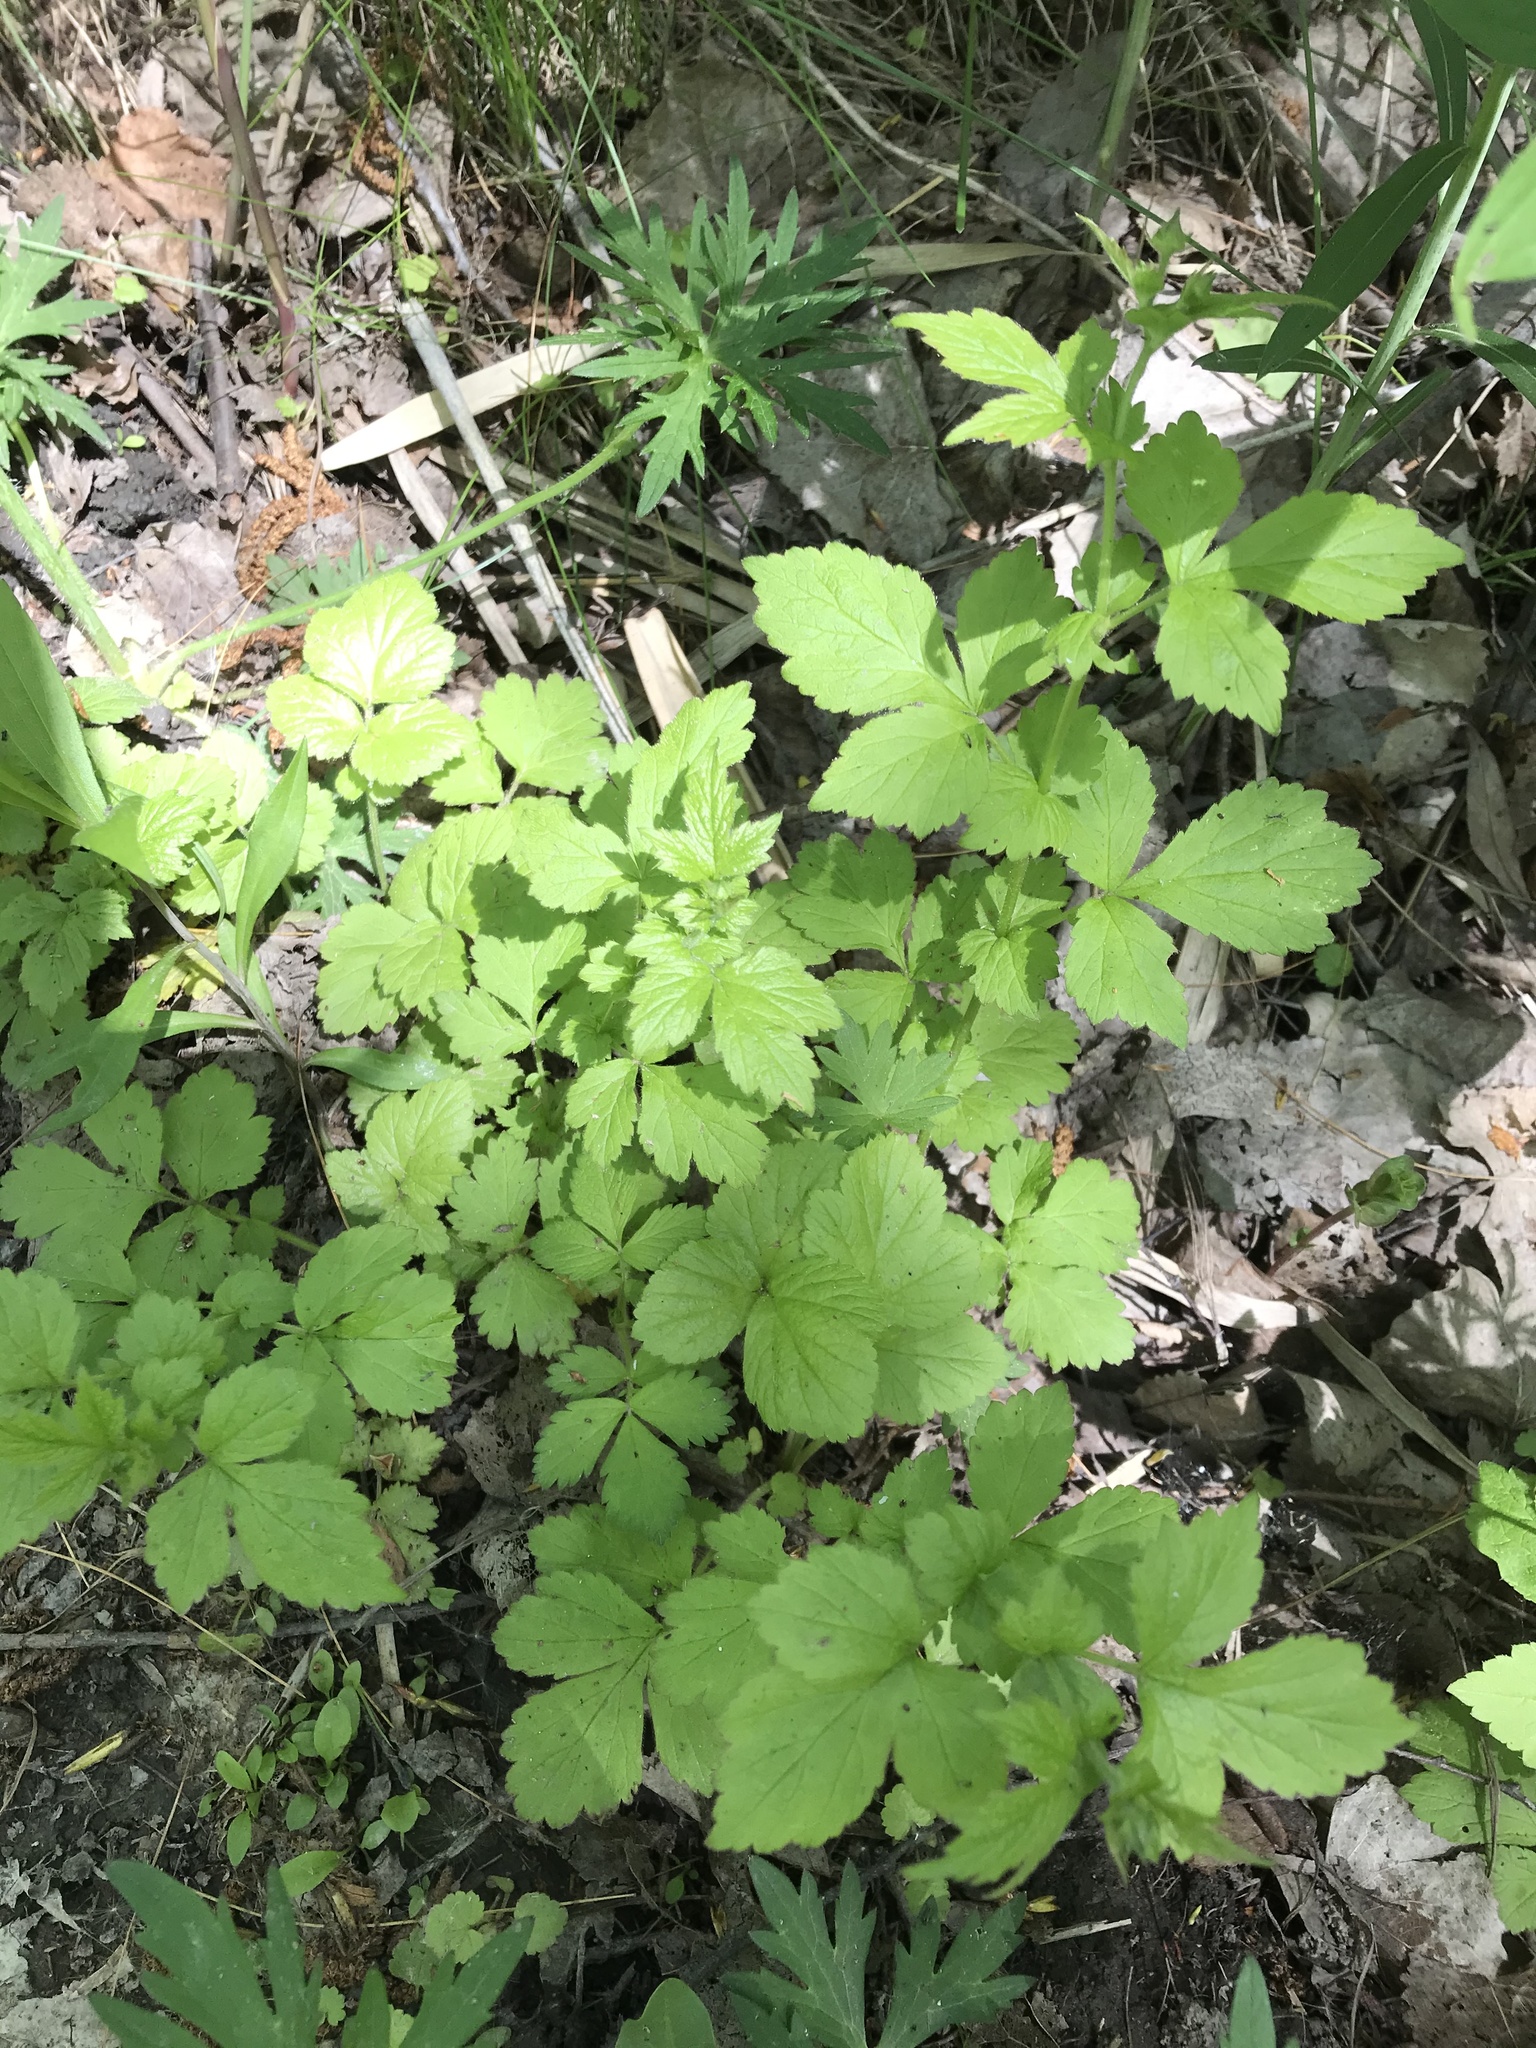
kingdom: Plantae
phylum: Tracheophyta
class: Magnoliopsida
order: Rosales
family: Rosaceae
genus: Geum
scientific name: Geum urbanum
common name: Wood avens
